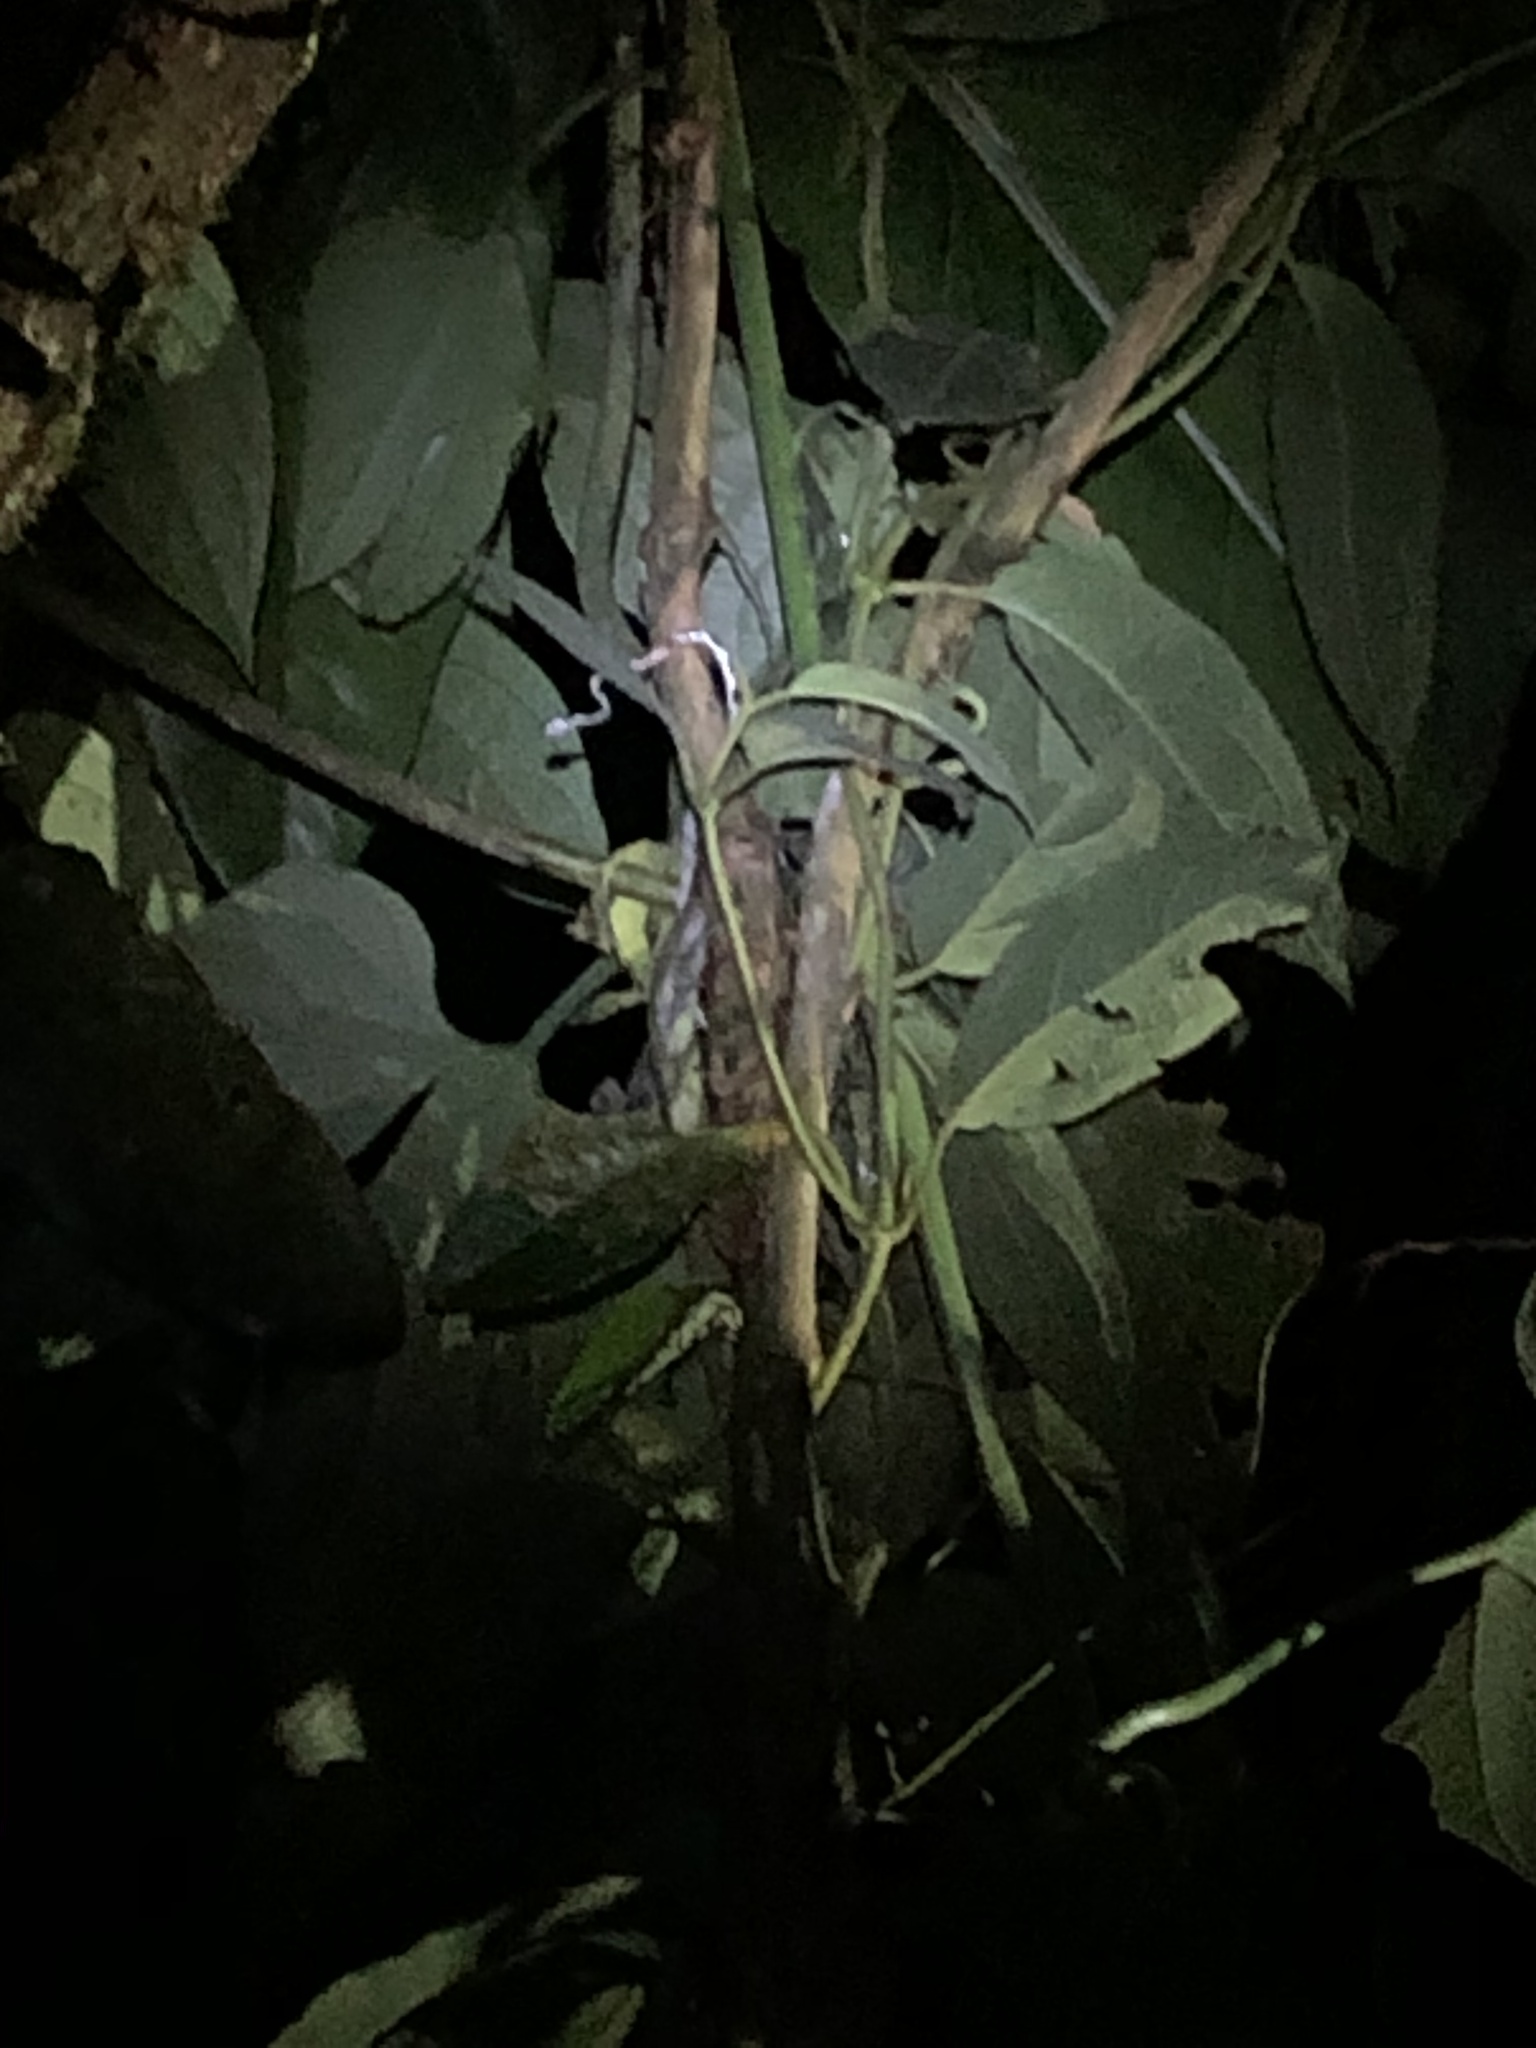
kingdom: Animalia
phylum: Chordata
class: Squamata
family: Colubridae
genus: Imantodes
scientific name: Imantodes cenchoa
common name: Blunthead tree snake
